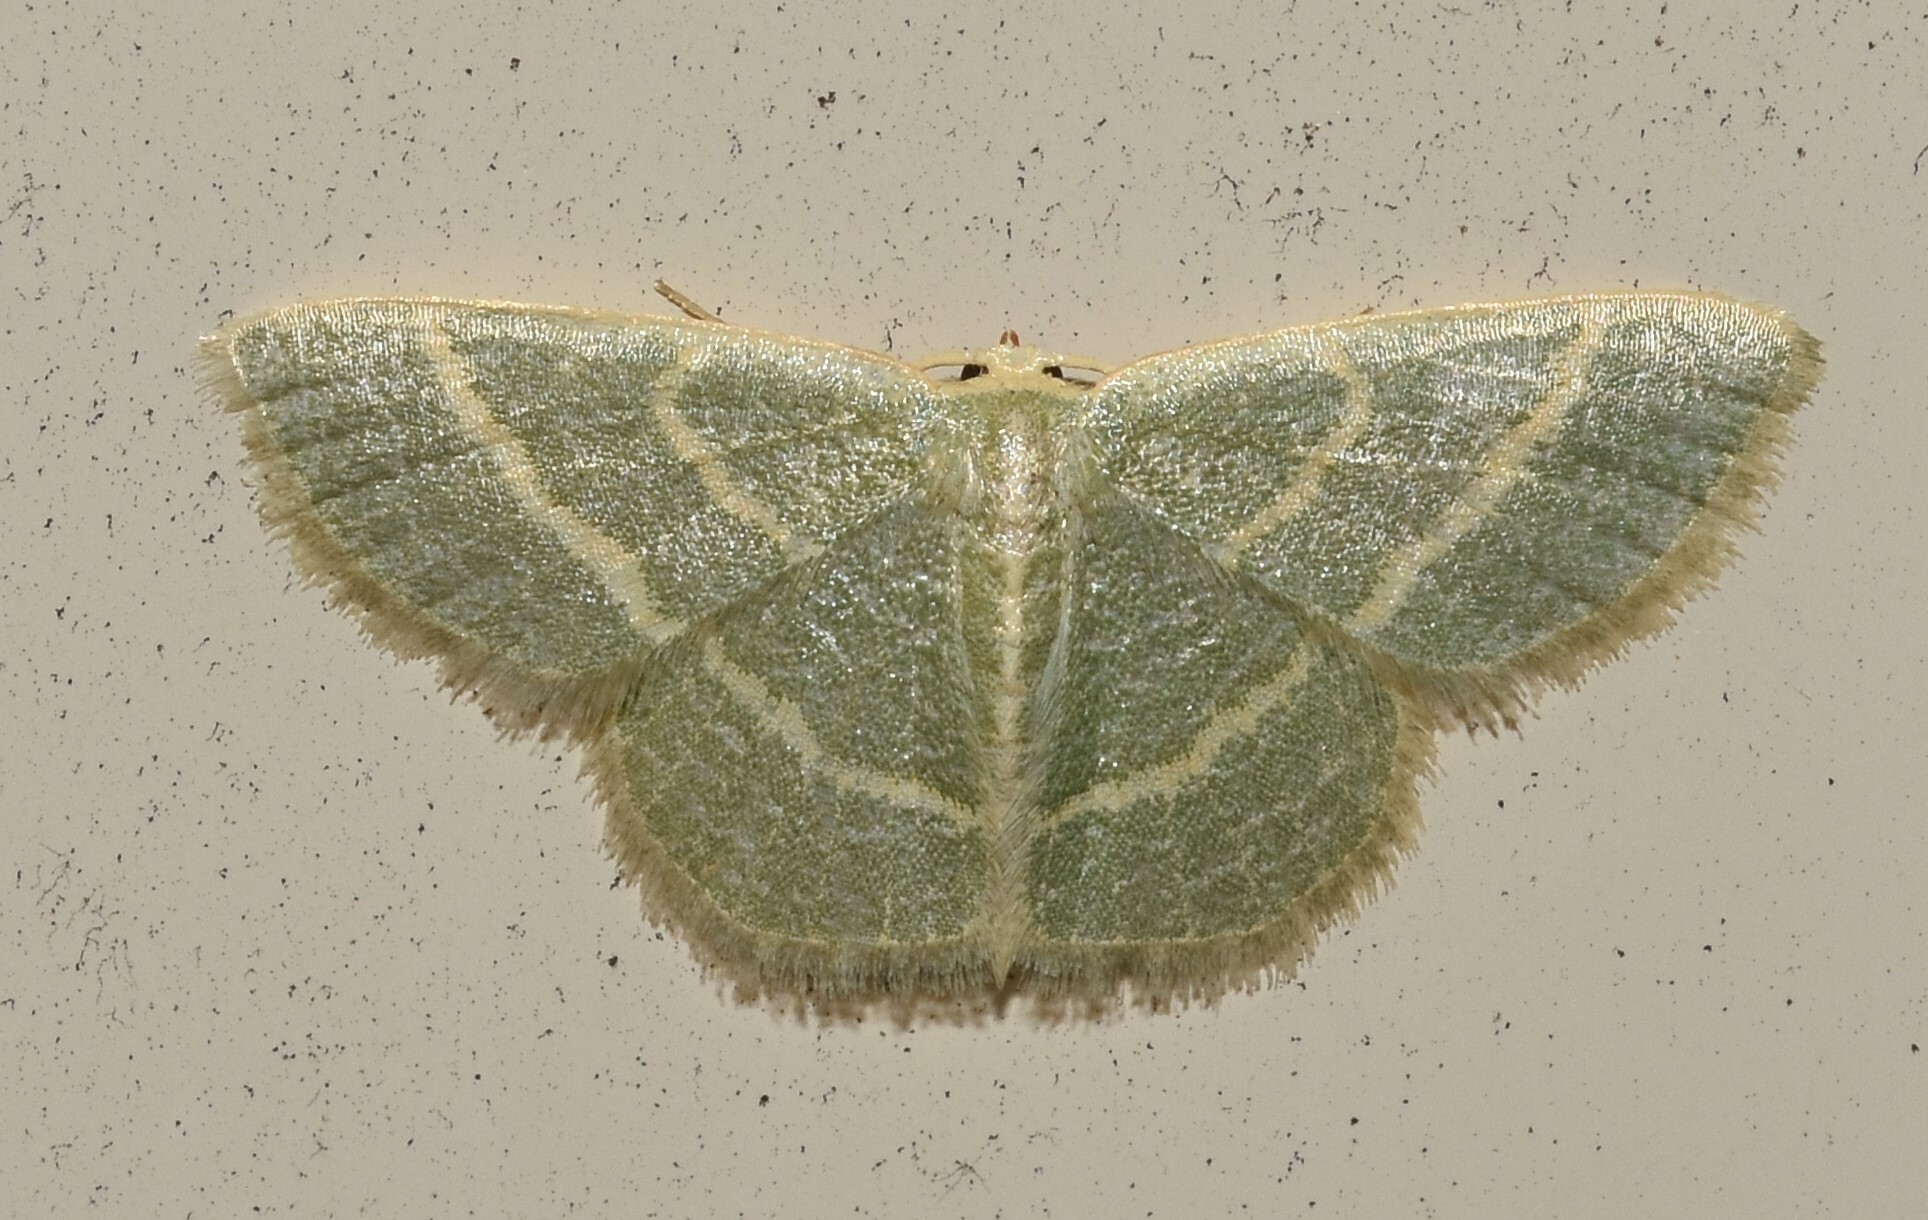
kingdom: Animalia
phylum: Arthropoda
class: Insecta
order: Lepidoptera
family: Geometridae
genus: Chlorochlamys
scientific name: Chlorochlamys chloroleucaria
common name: Blackberry looper
